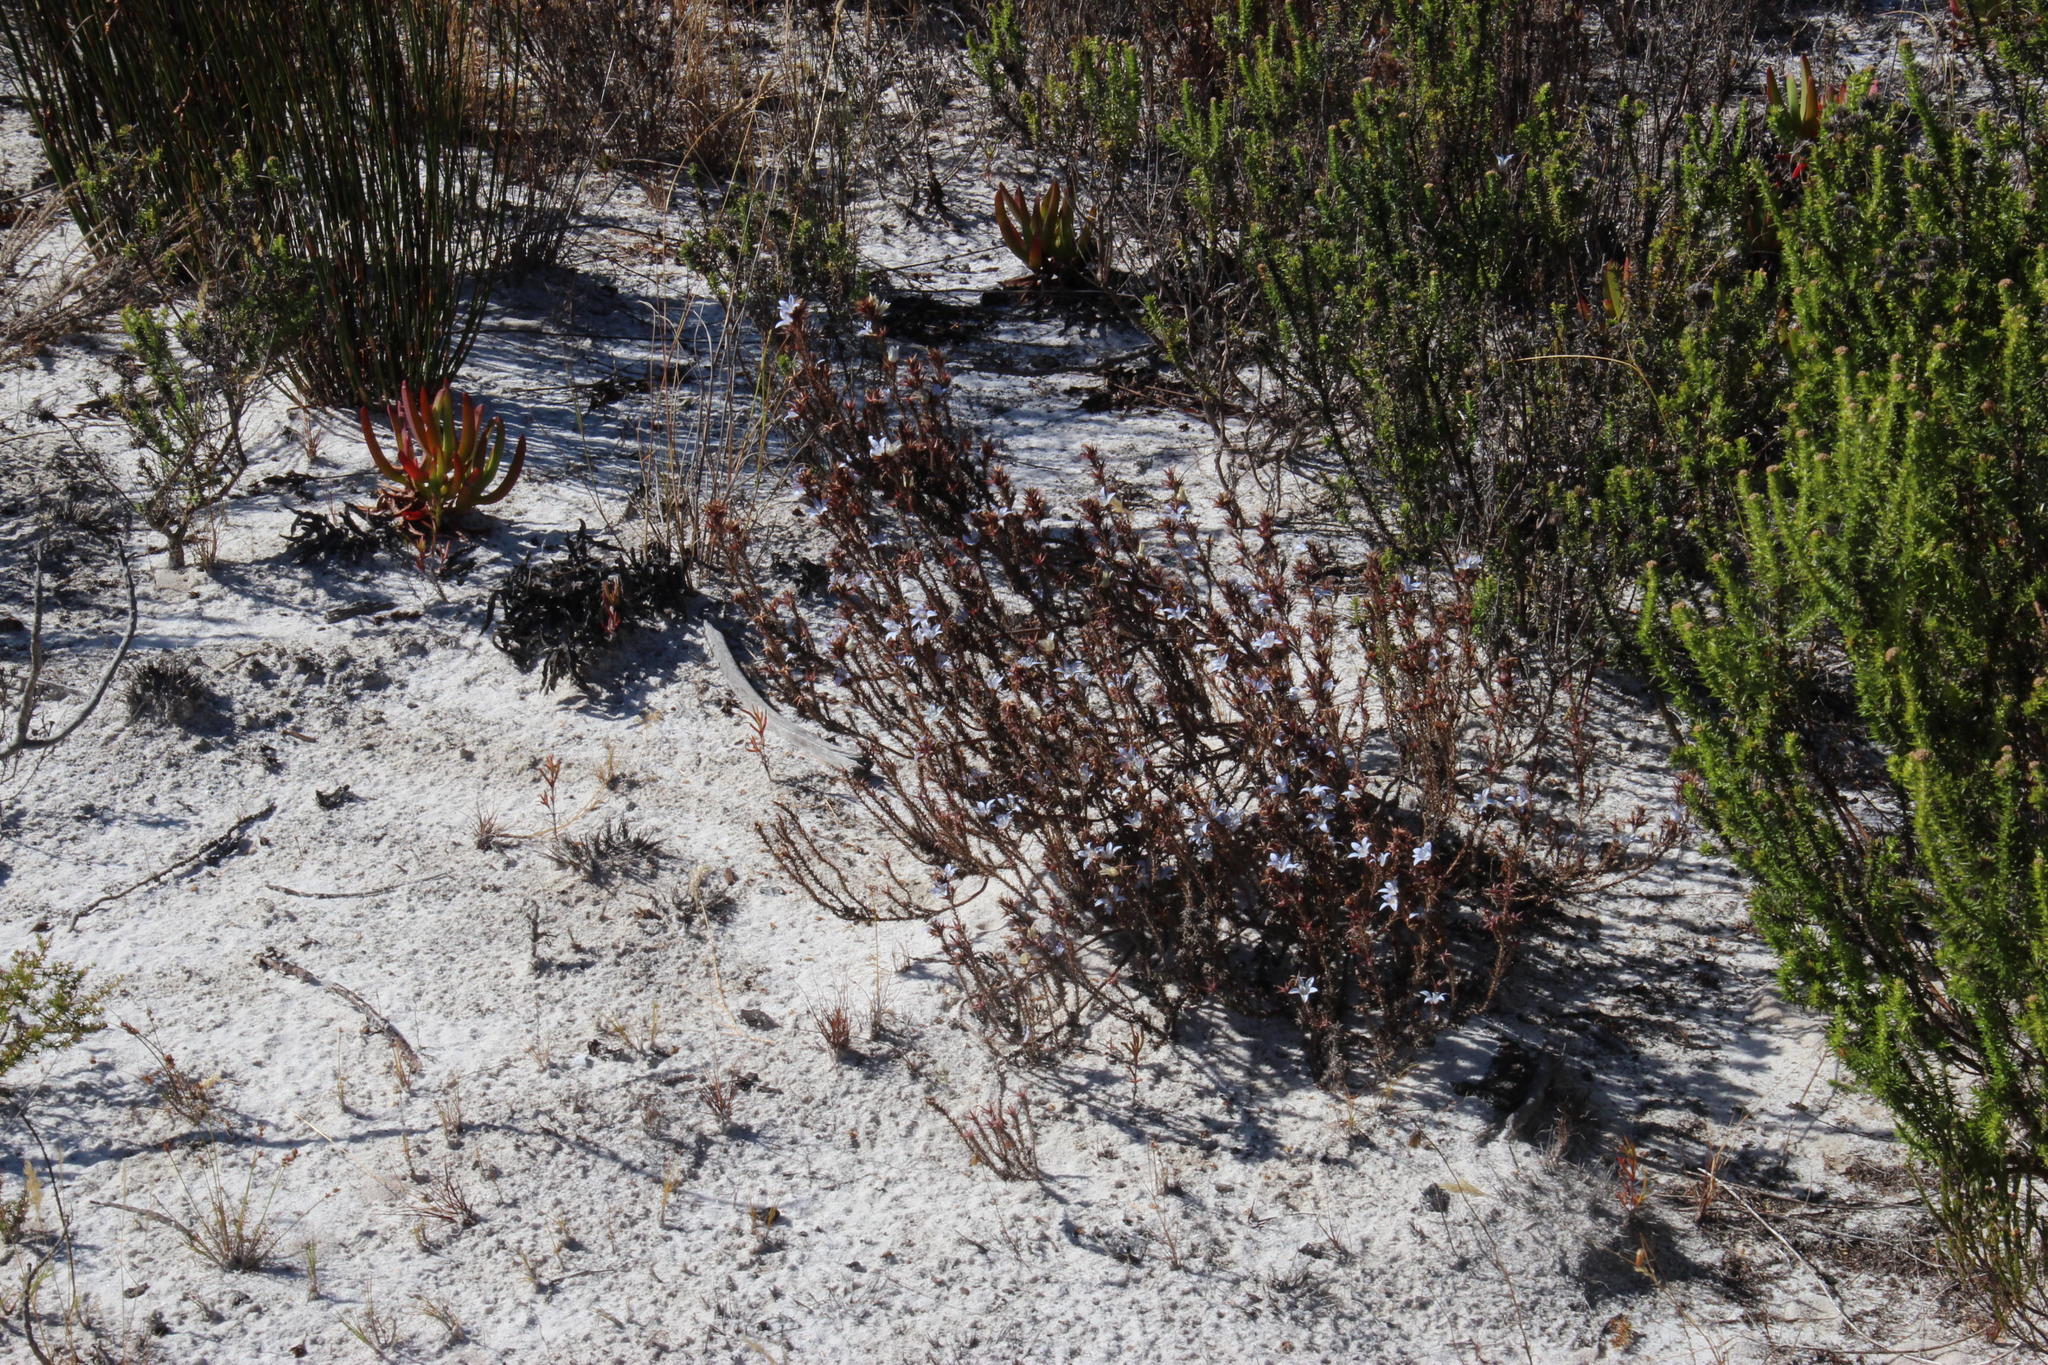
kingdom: Plantae
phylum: Tracheophyta
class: Magnoliopsida
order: Asterales
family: Campanulaceae
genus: Roella
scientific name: Roella dregeana
